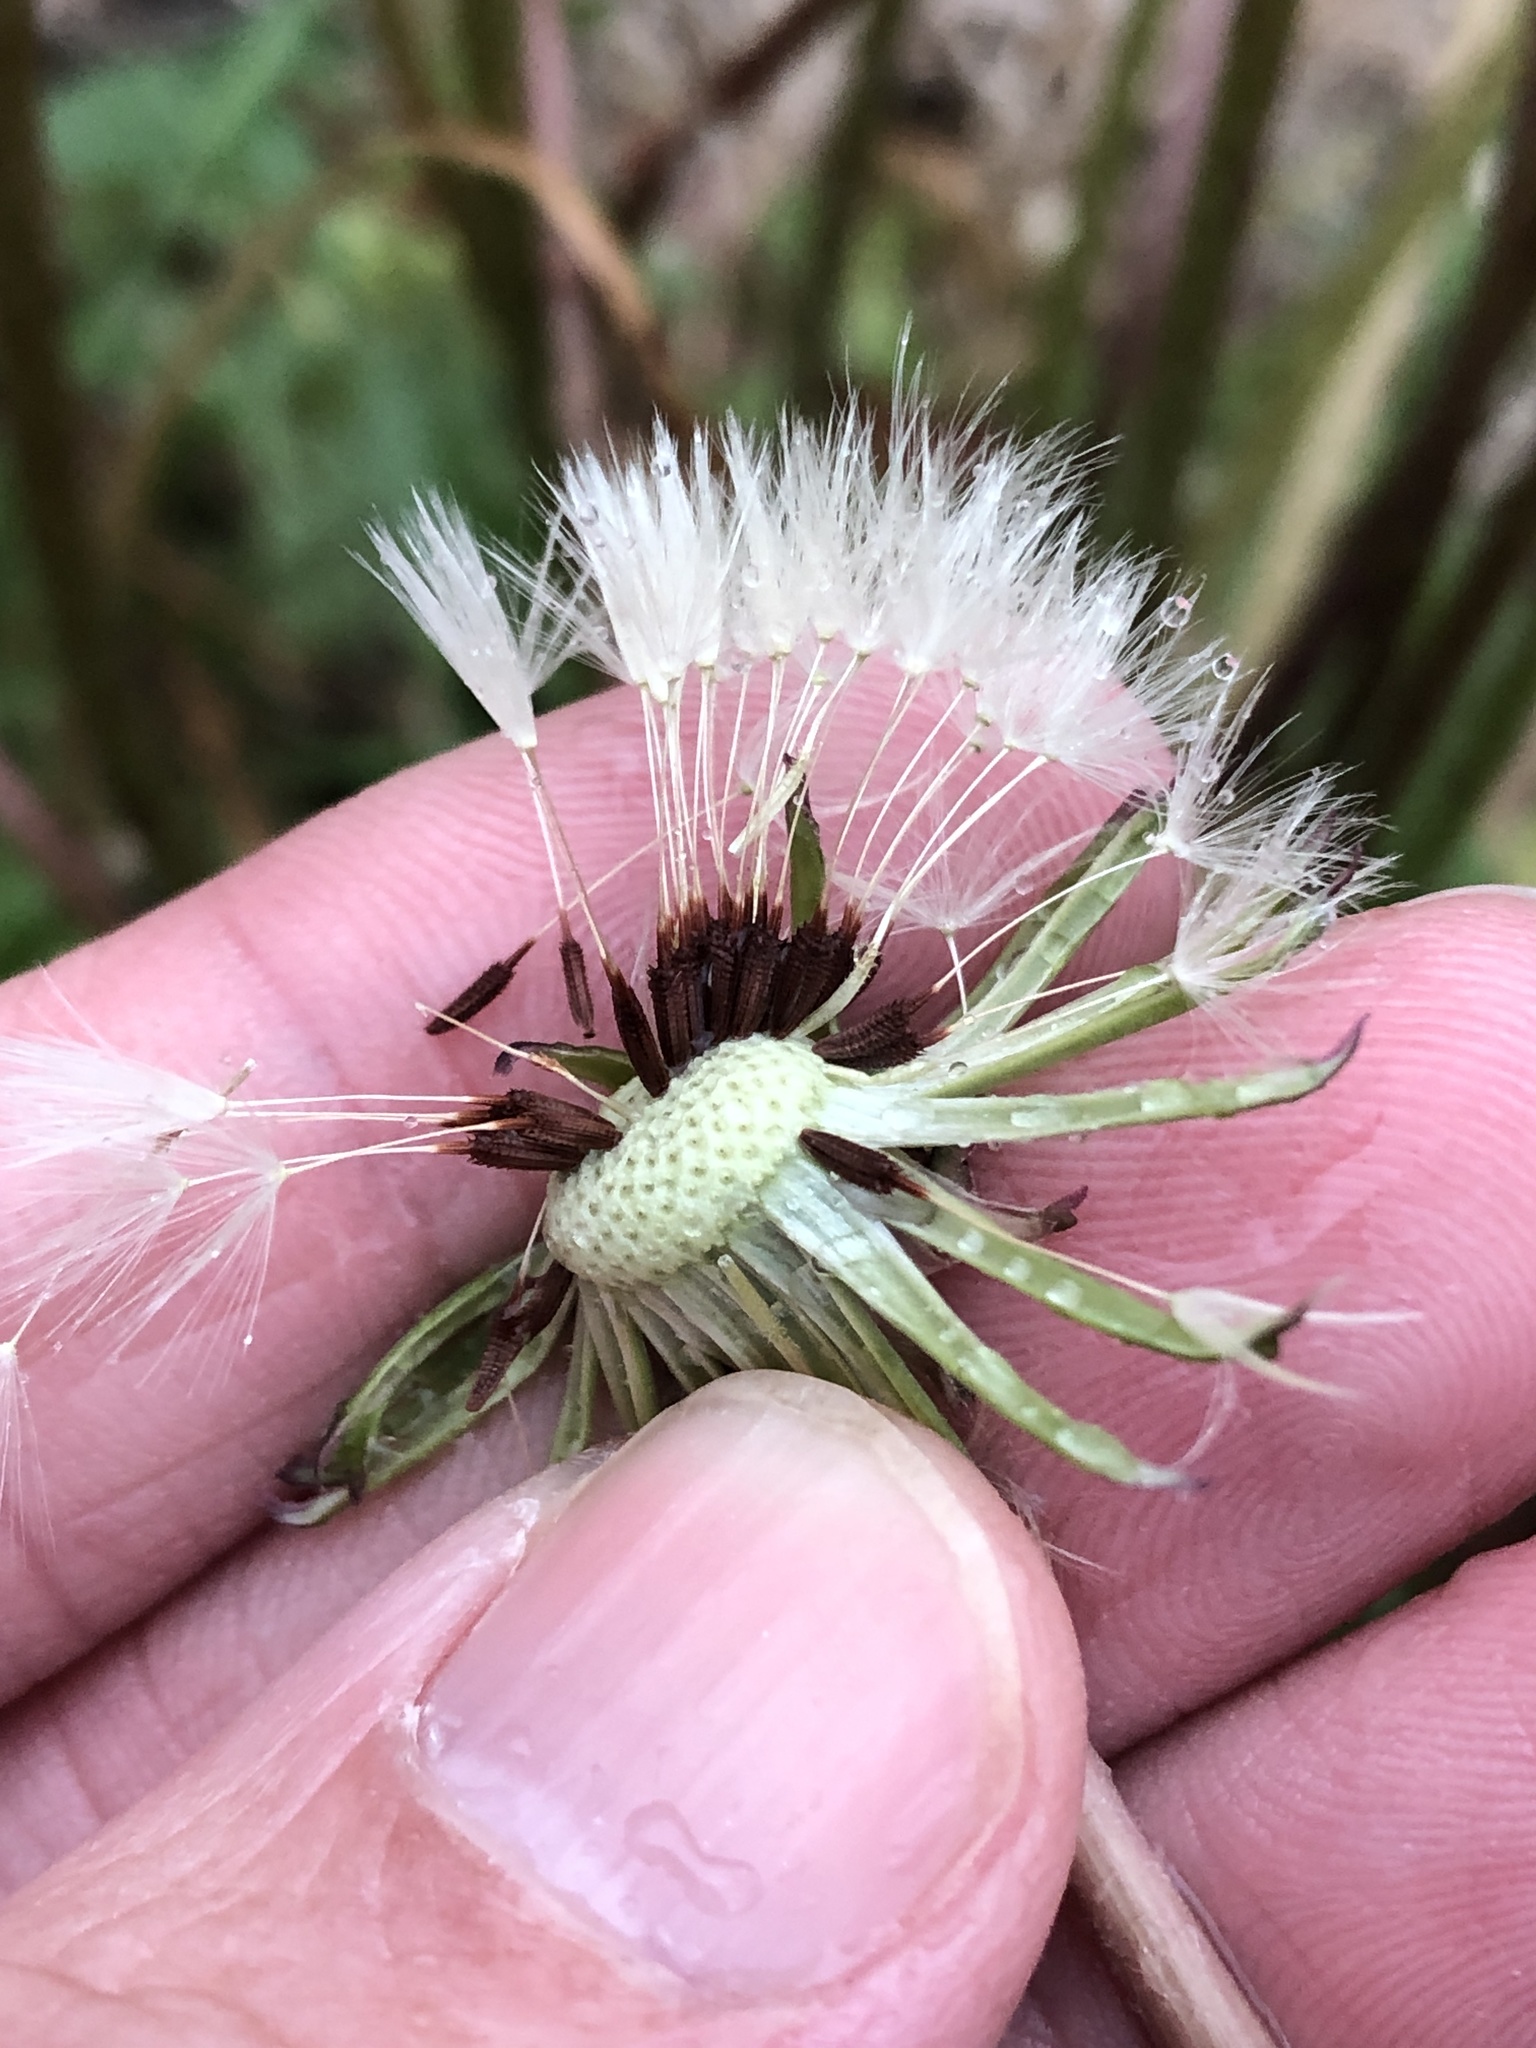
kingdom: Plantae
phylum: Tracheophyta
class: Magnoliopsida
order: Asterales
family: Asteraceae
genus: Taraxacum
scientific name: Taraxacum erythrospermum
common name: Rock dandelion
